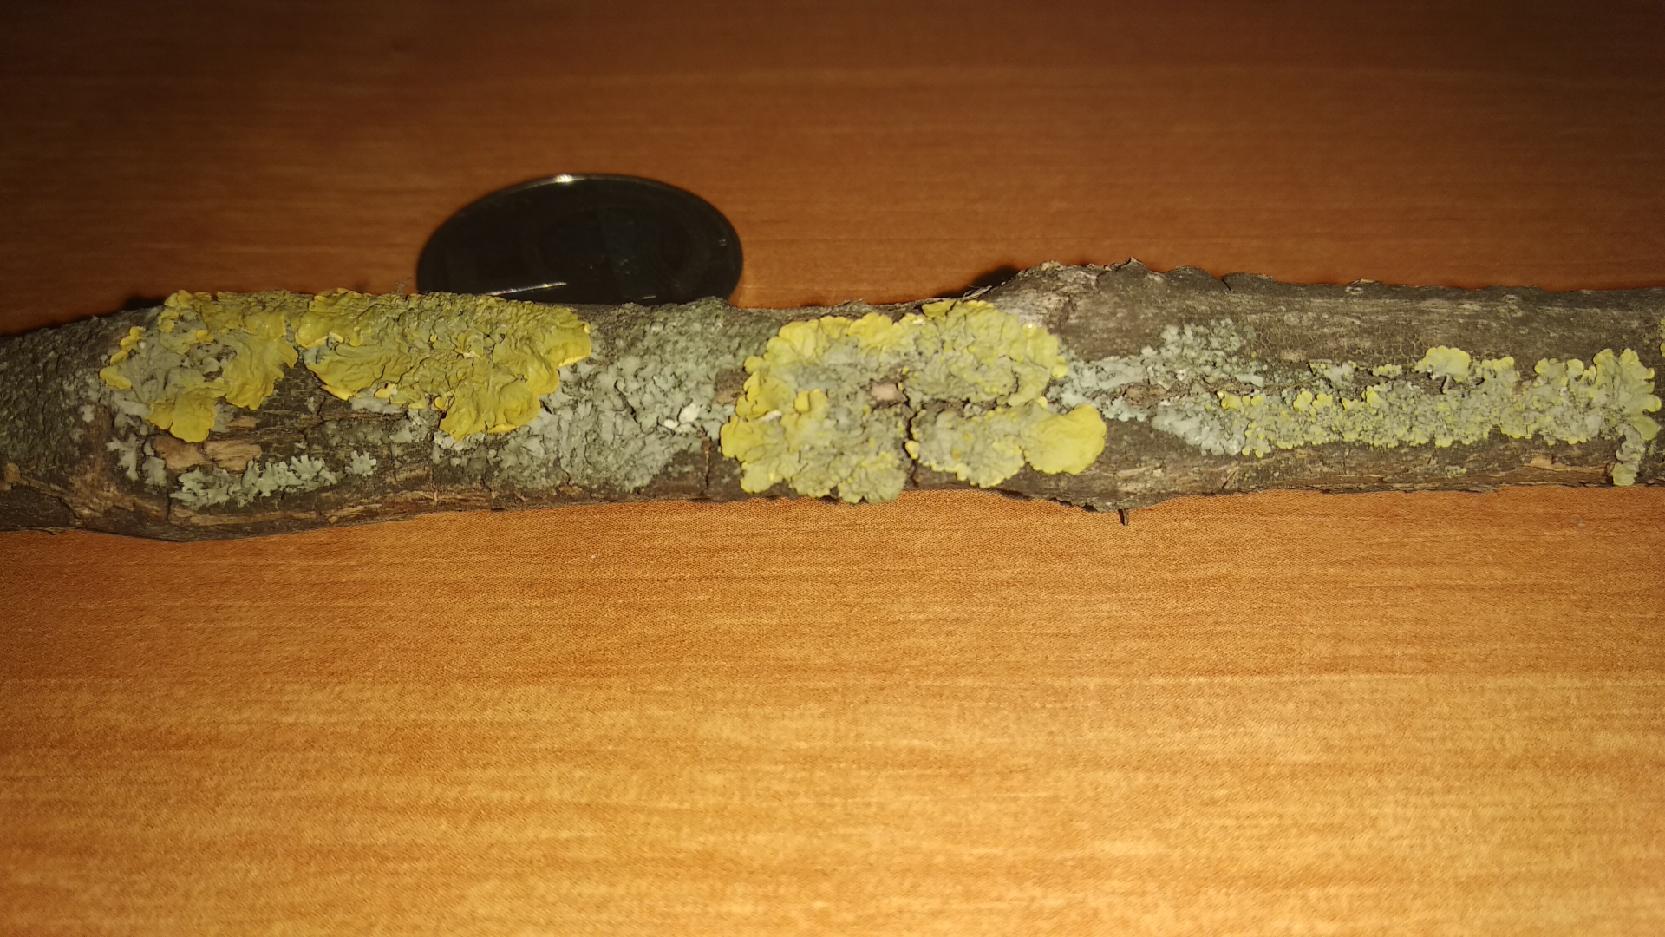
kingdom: Fungi
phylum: Ascomycota
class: Lecanoromycetes
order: Teloschistales
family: Teloschistaceae
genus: Xanthoria
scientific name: Xanthoria parietina
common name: Common orange lichen
